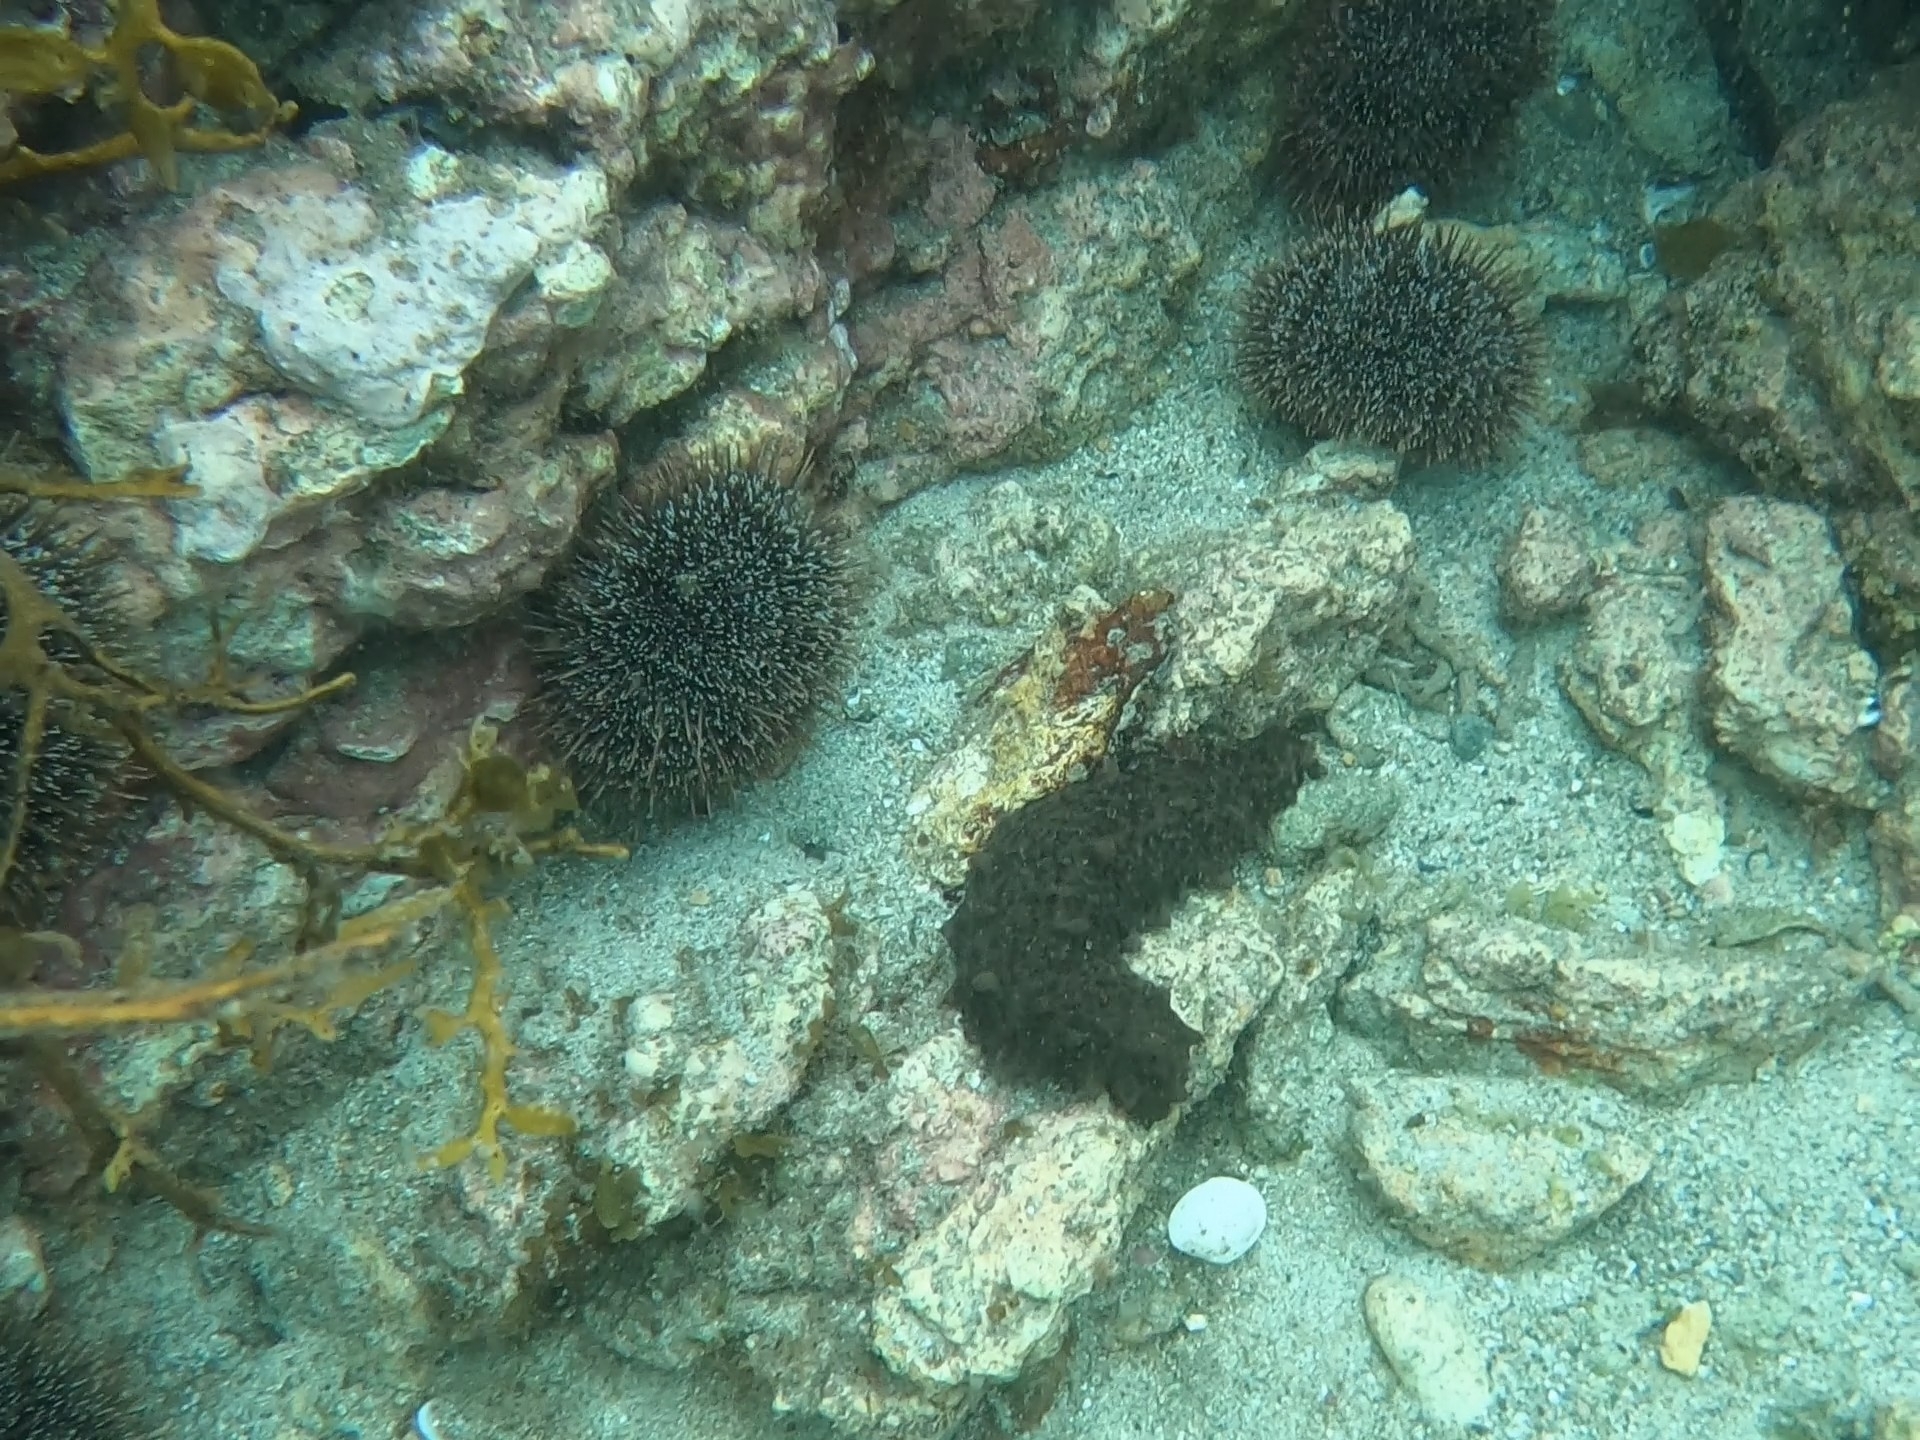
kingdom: Animalia
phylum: Echinodermata
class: Holothuroidea
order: Synallactida
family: Stichopodidae
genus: Australostichopus
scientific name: Australostichopus mollis
